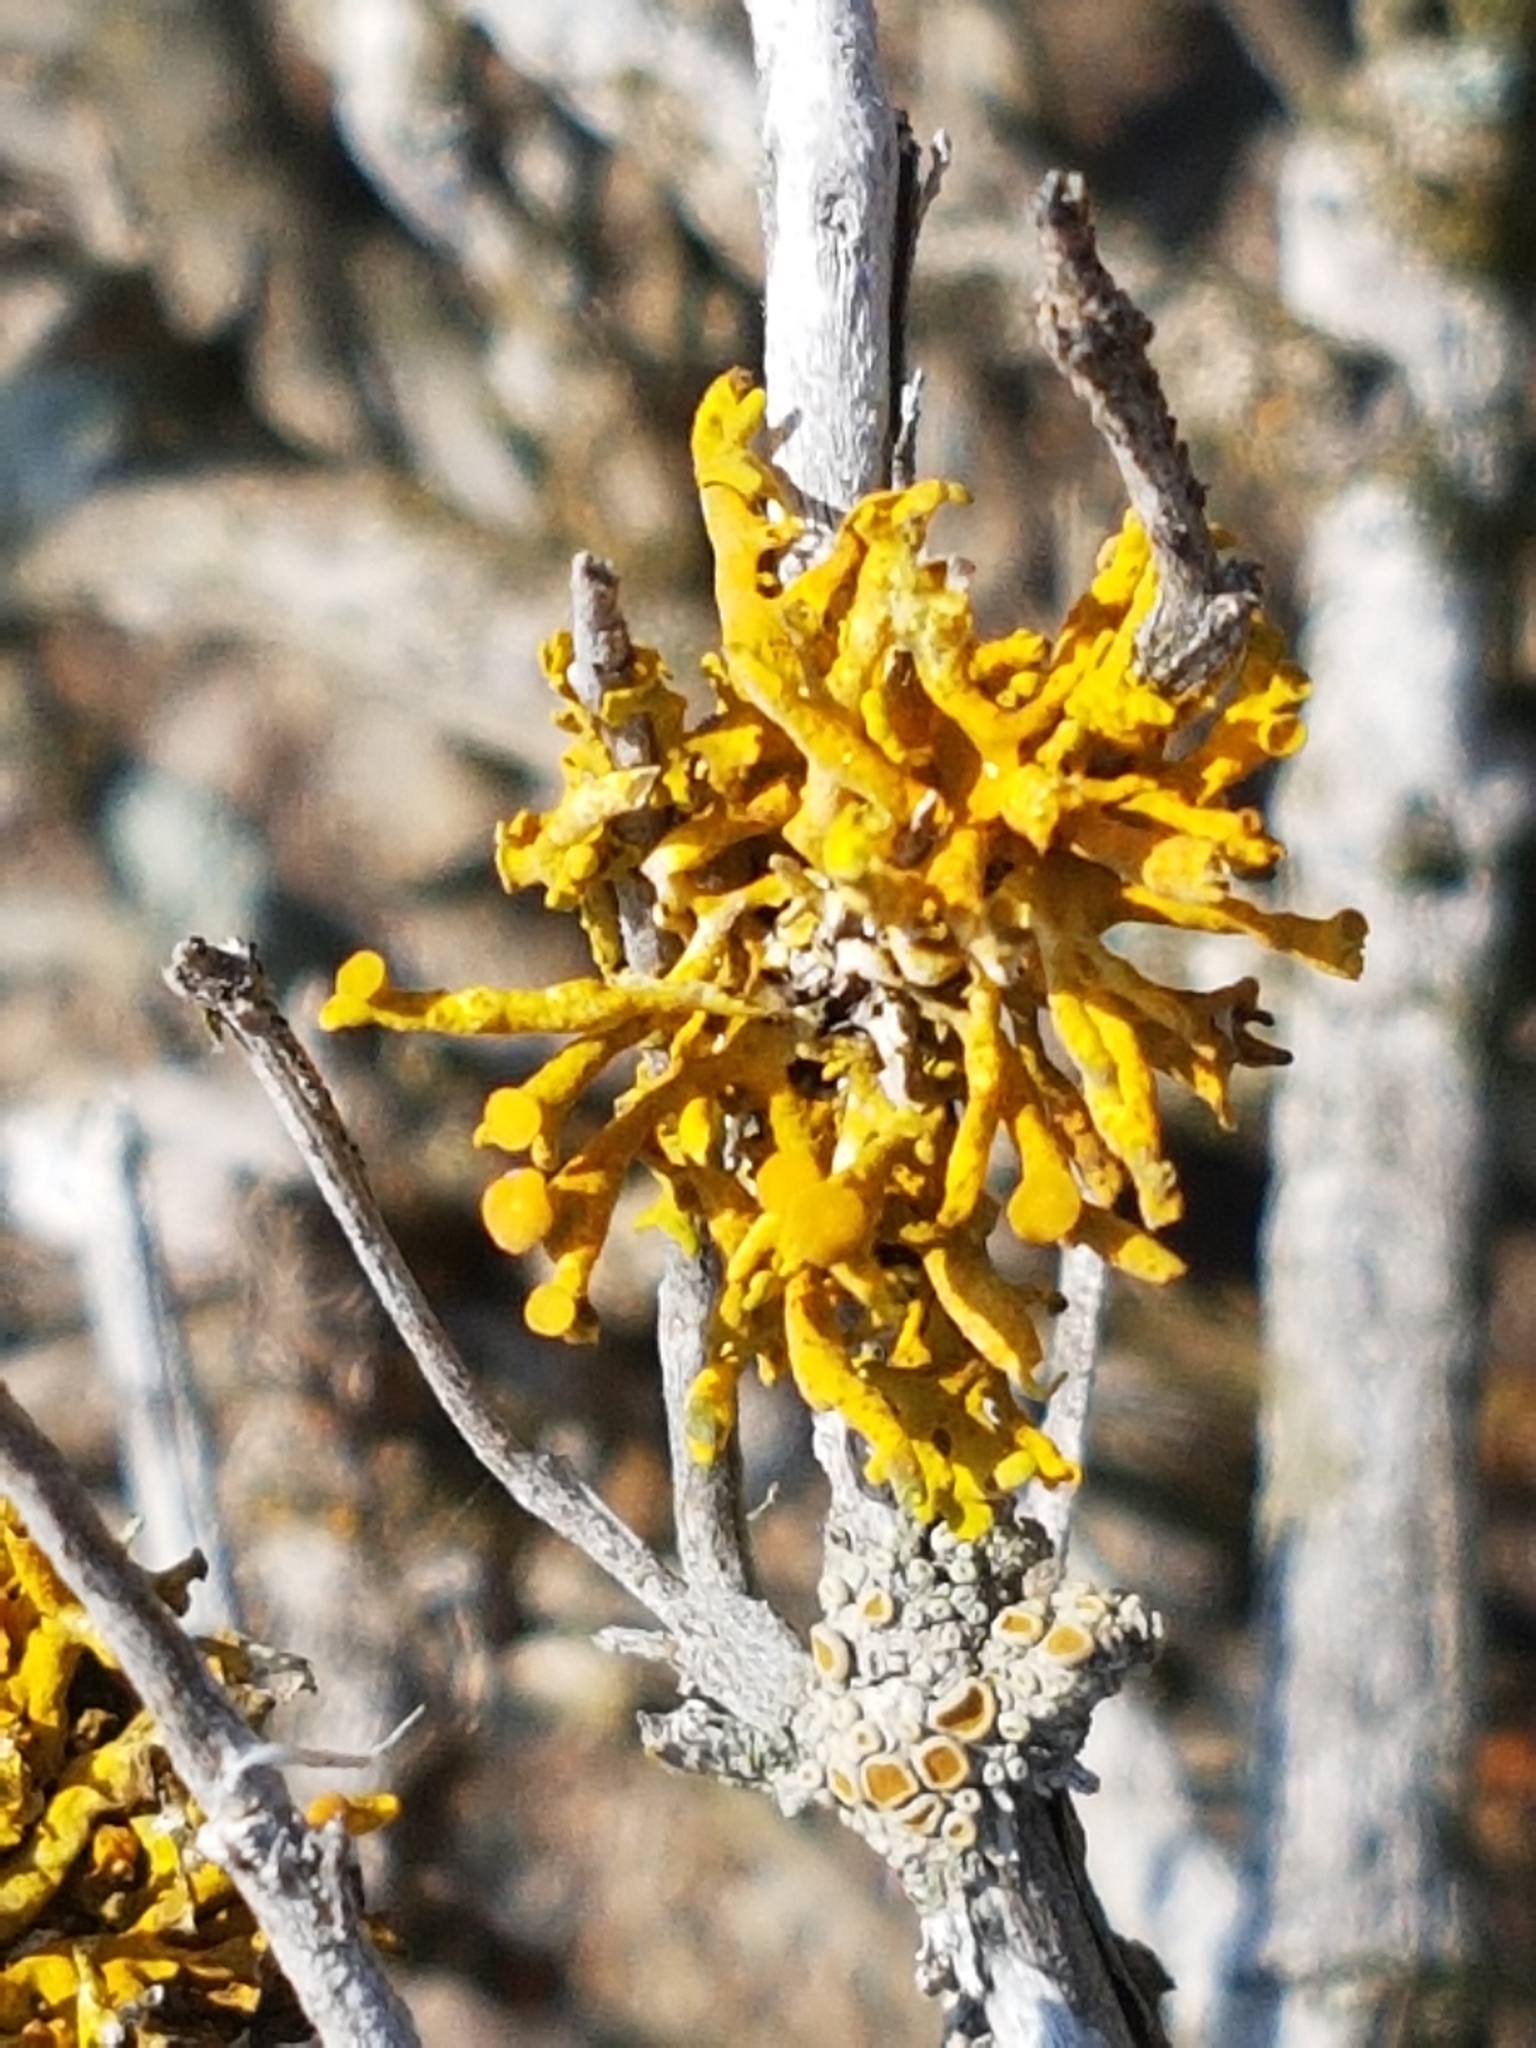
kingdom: Fungi
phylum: Ascomycota
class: Lecanoromycetes
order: Teloschistales
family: Teloschistaceae
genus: Dufourea
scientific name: Dufourea flammea
